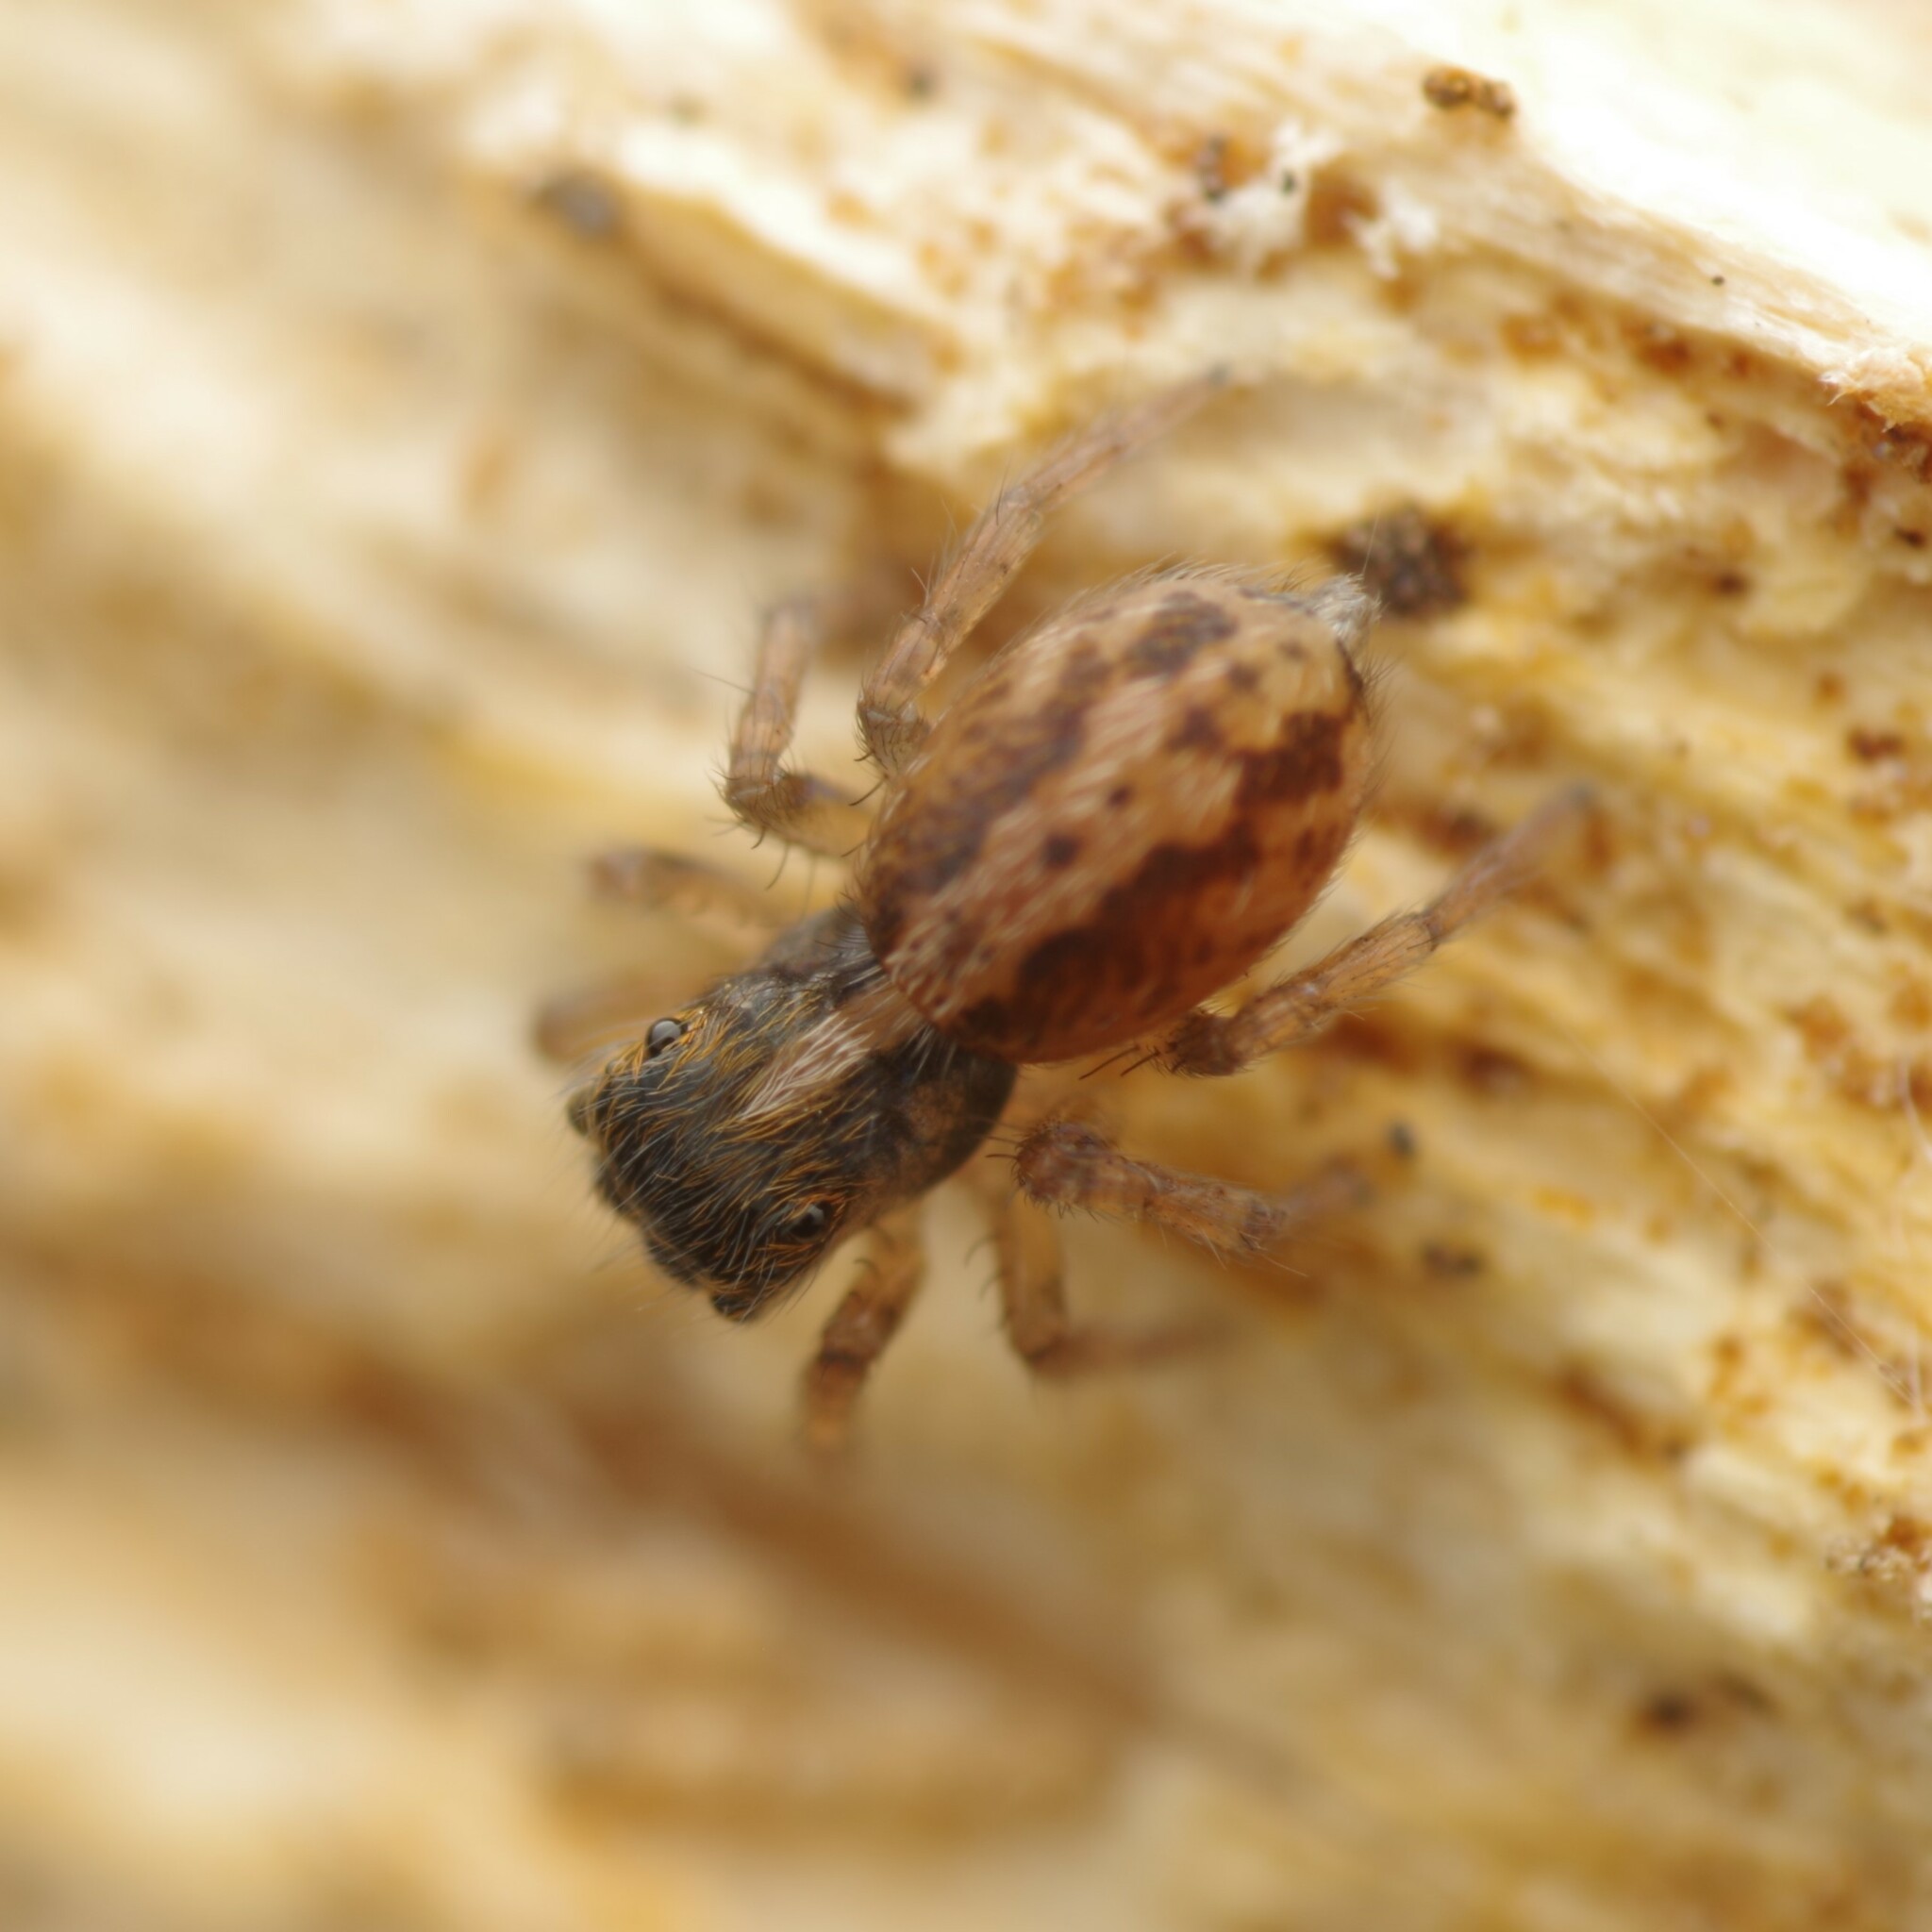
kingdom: Animalia
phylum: Arthropoda
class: Arachnida
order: Araneae
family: Salticidae
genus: Saitis
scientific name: Saitis barbipes
